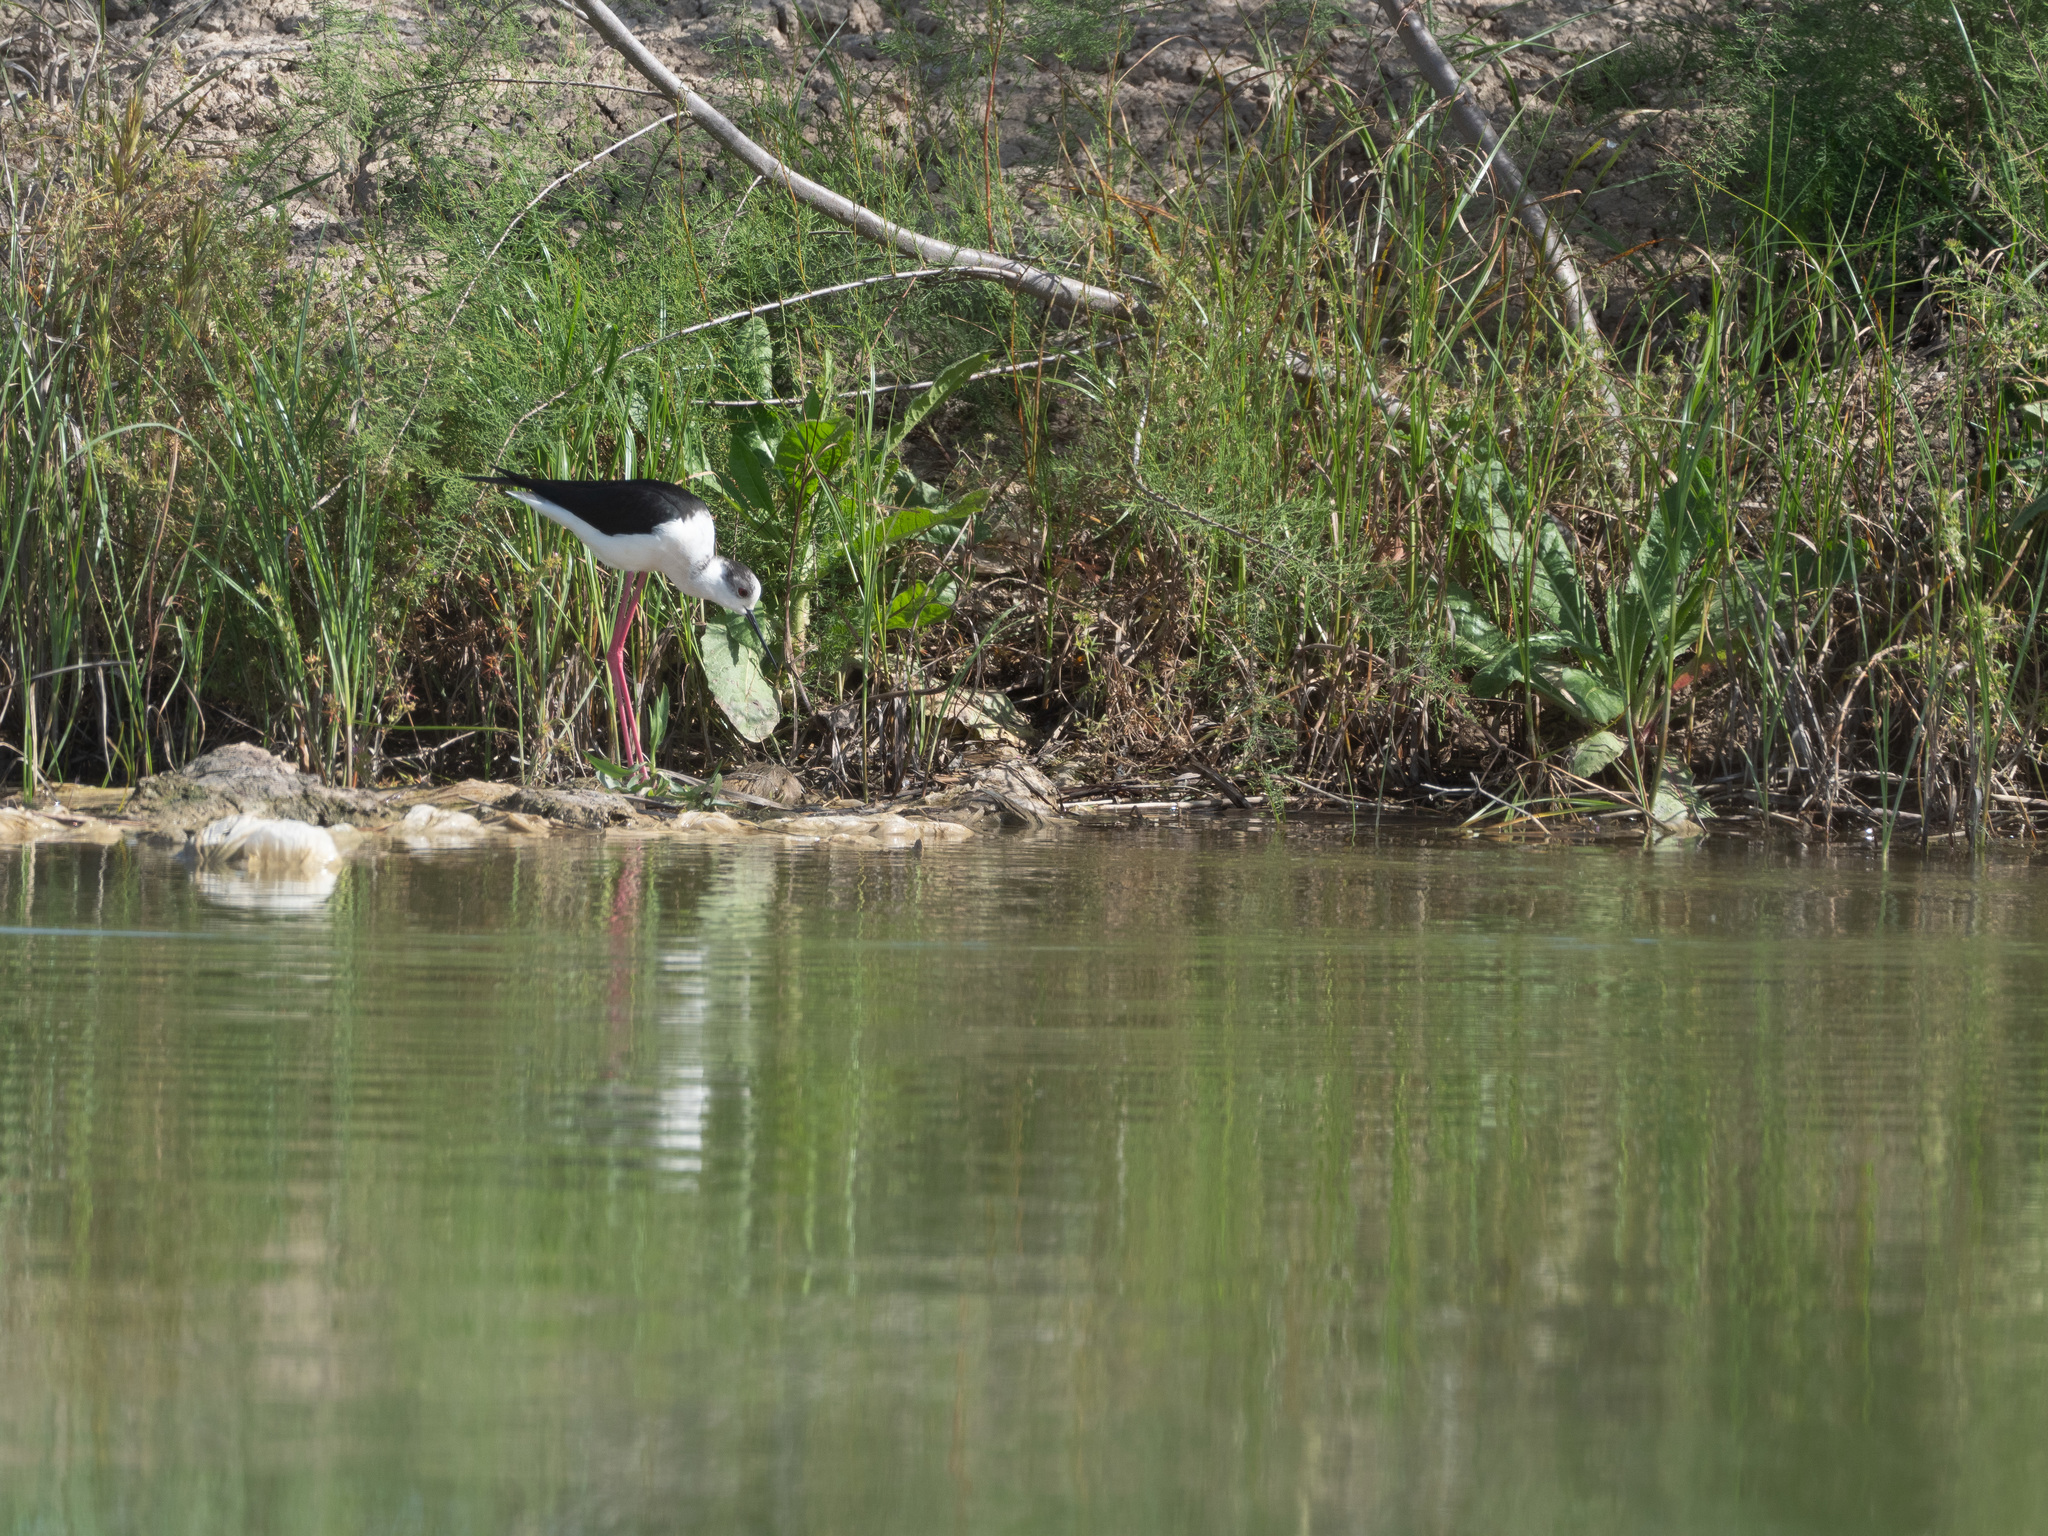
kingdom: Animalia
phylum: Chordata
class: Aves
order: Charadriiformes
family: Recurvirostridae
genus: Himantopus
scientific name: Himantopus himantopus
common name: Black-winged stilt
